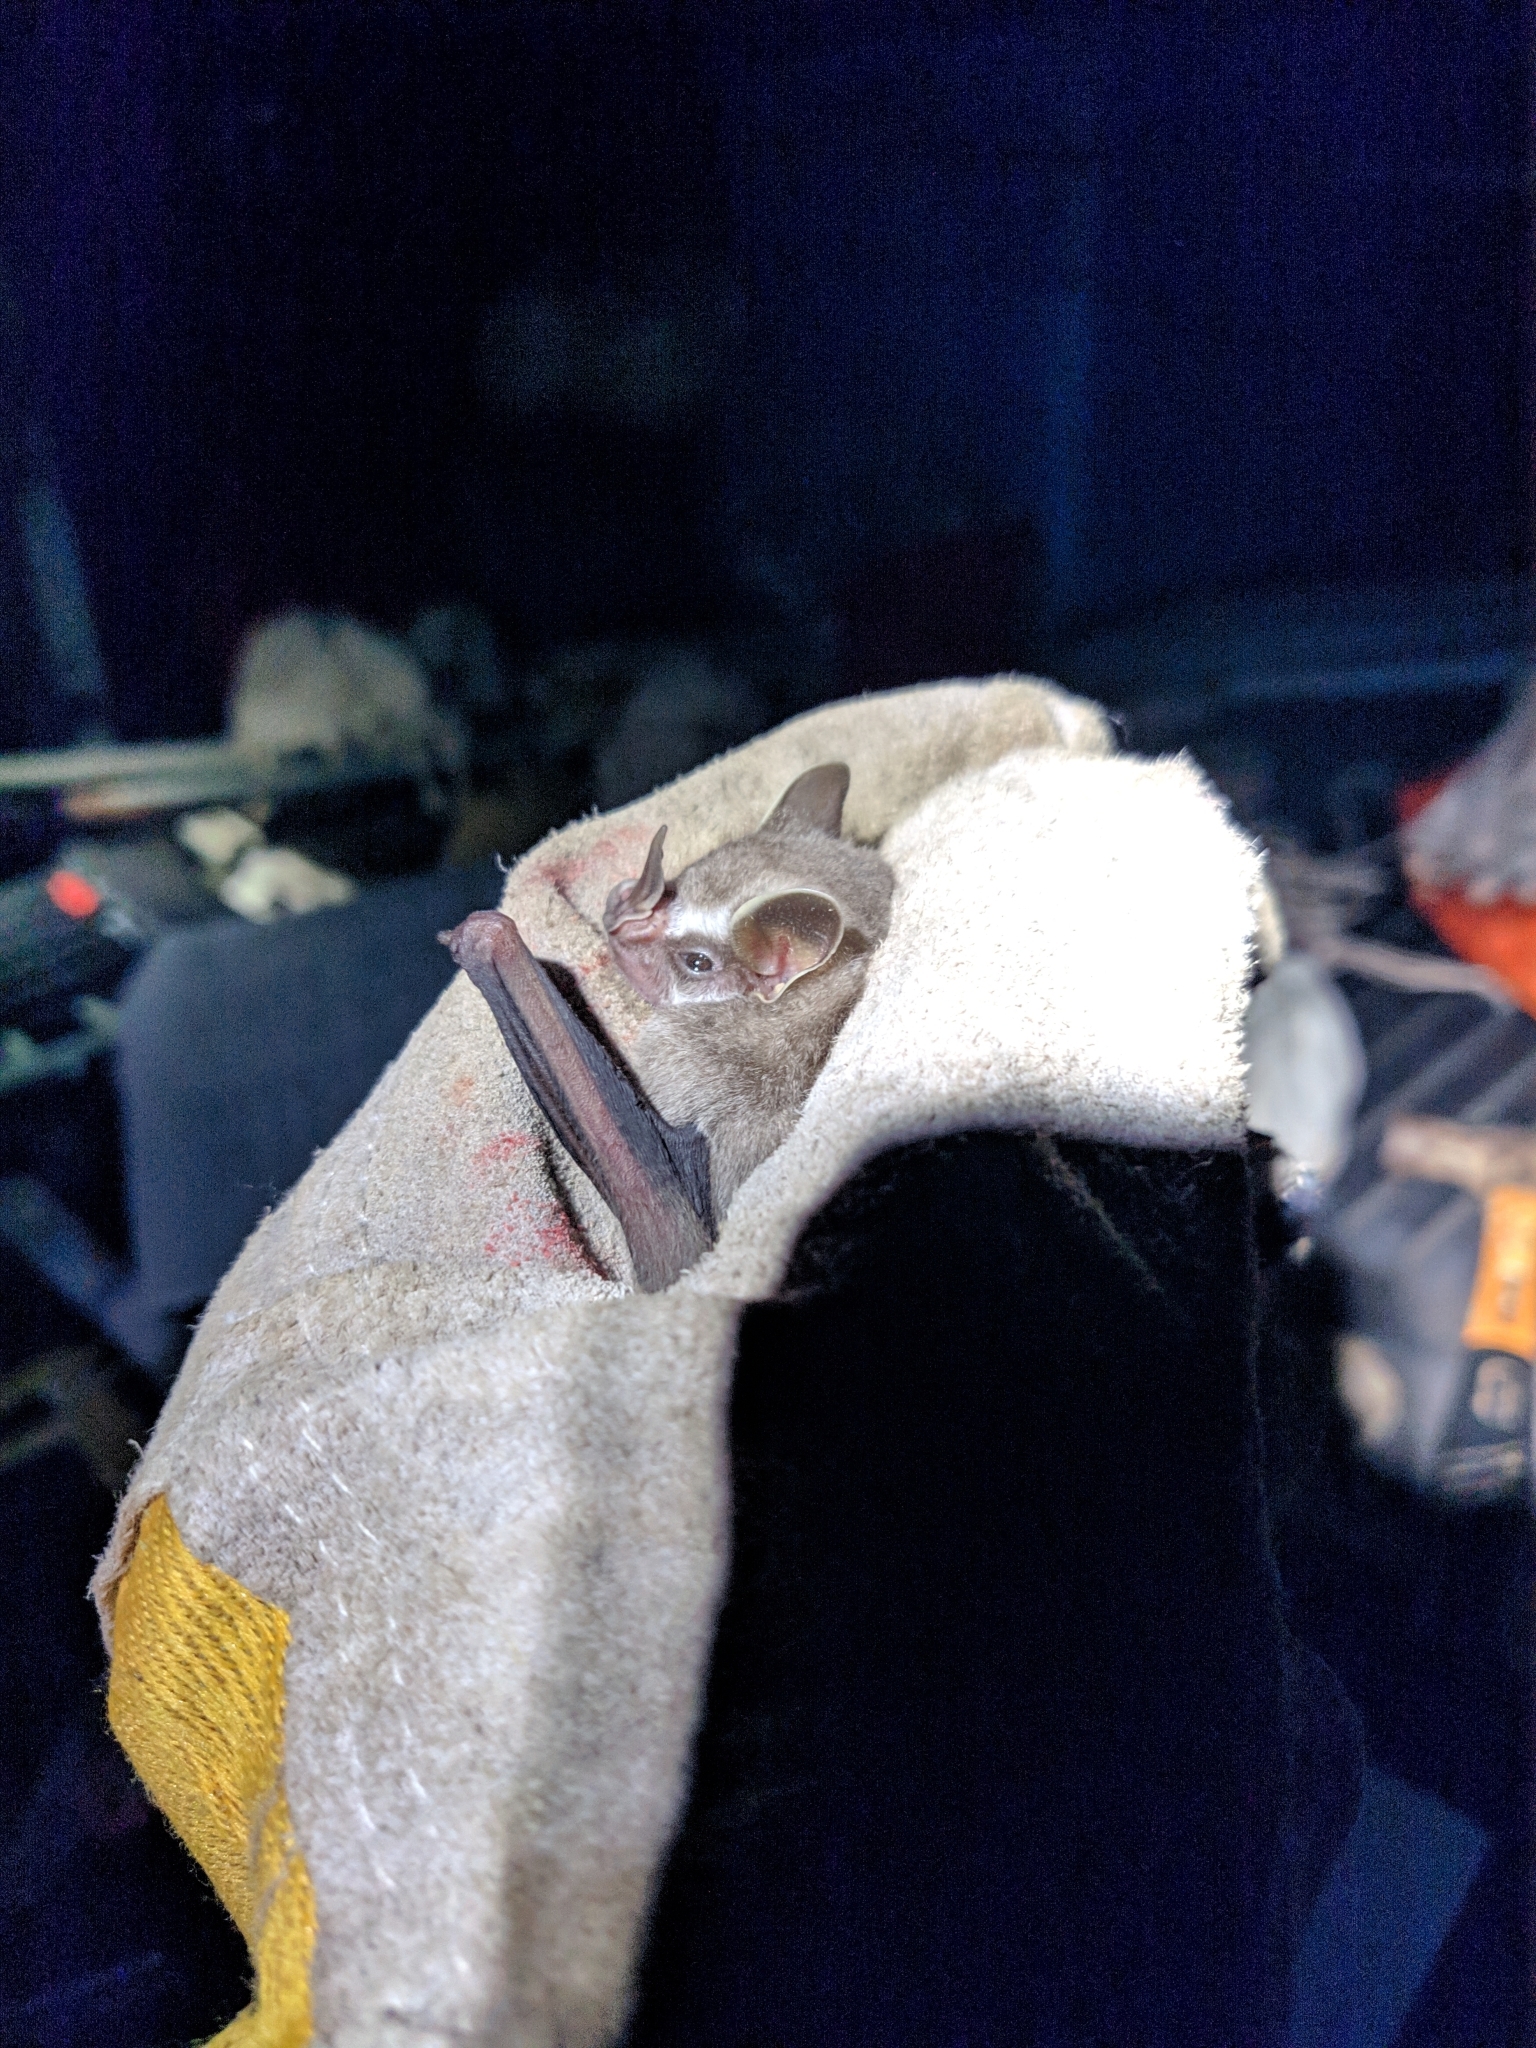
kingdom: Animalia
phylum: Chordata
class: Mammalia
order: Chiroptera
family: Phyllostomidae
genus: Artibeus
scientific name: Artibeus cinereus
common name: Gervais's fruit-eating bat
